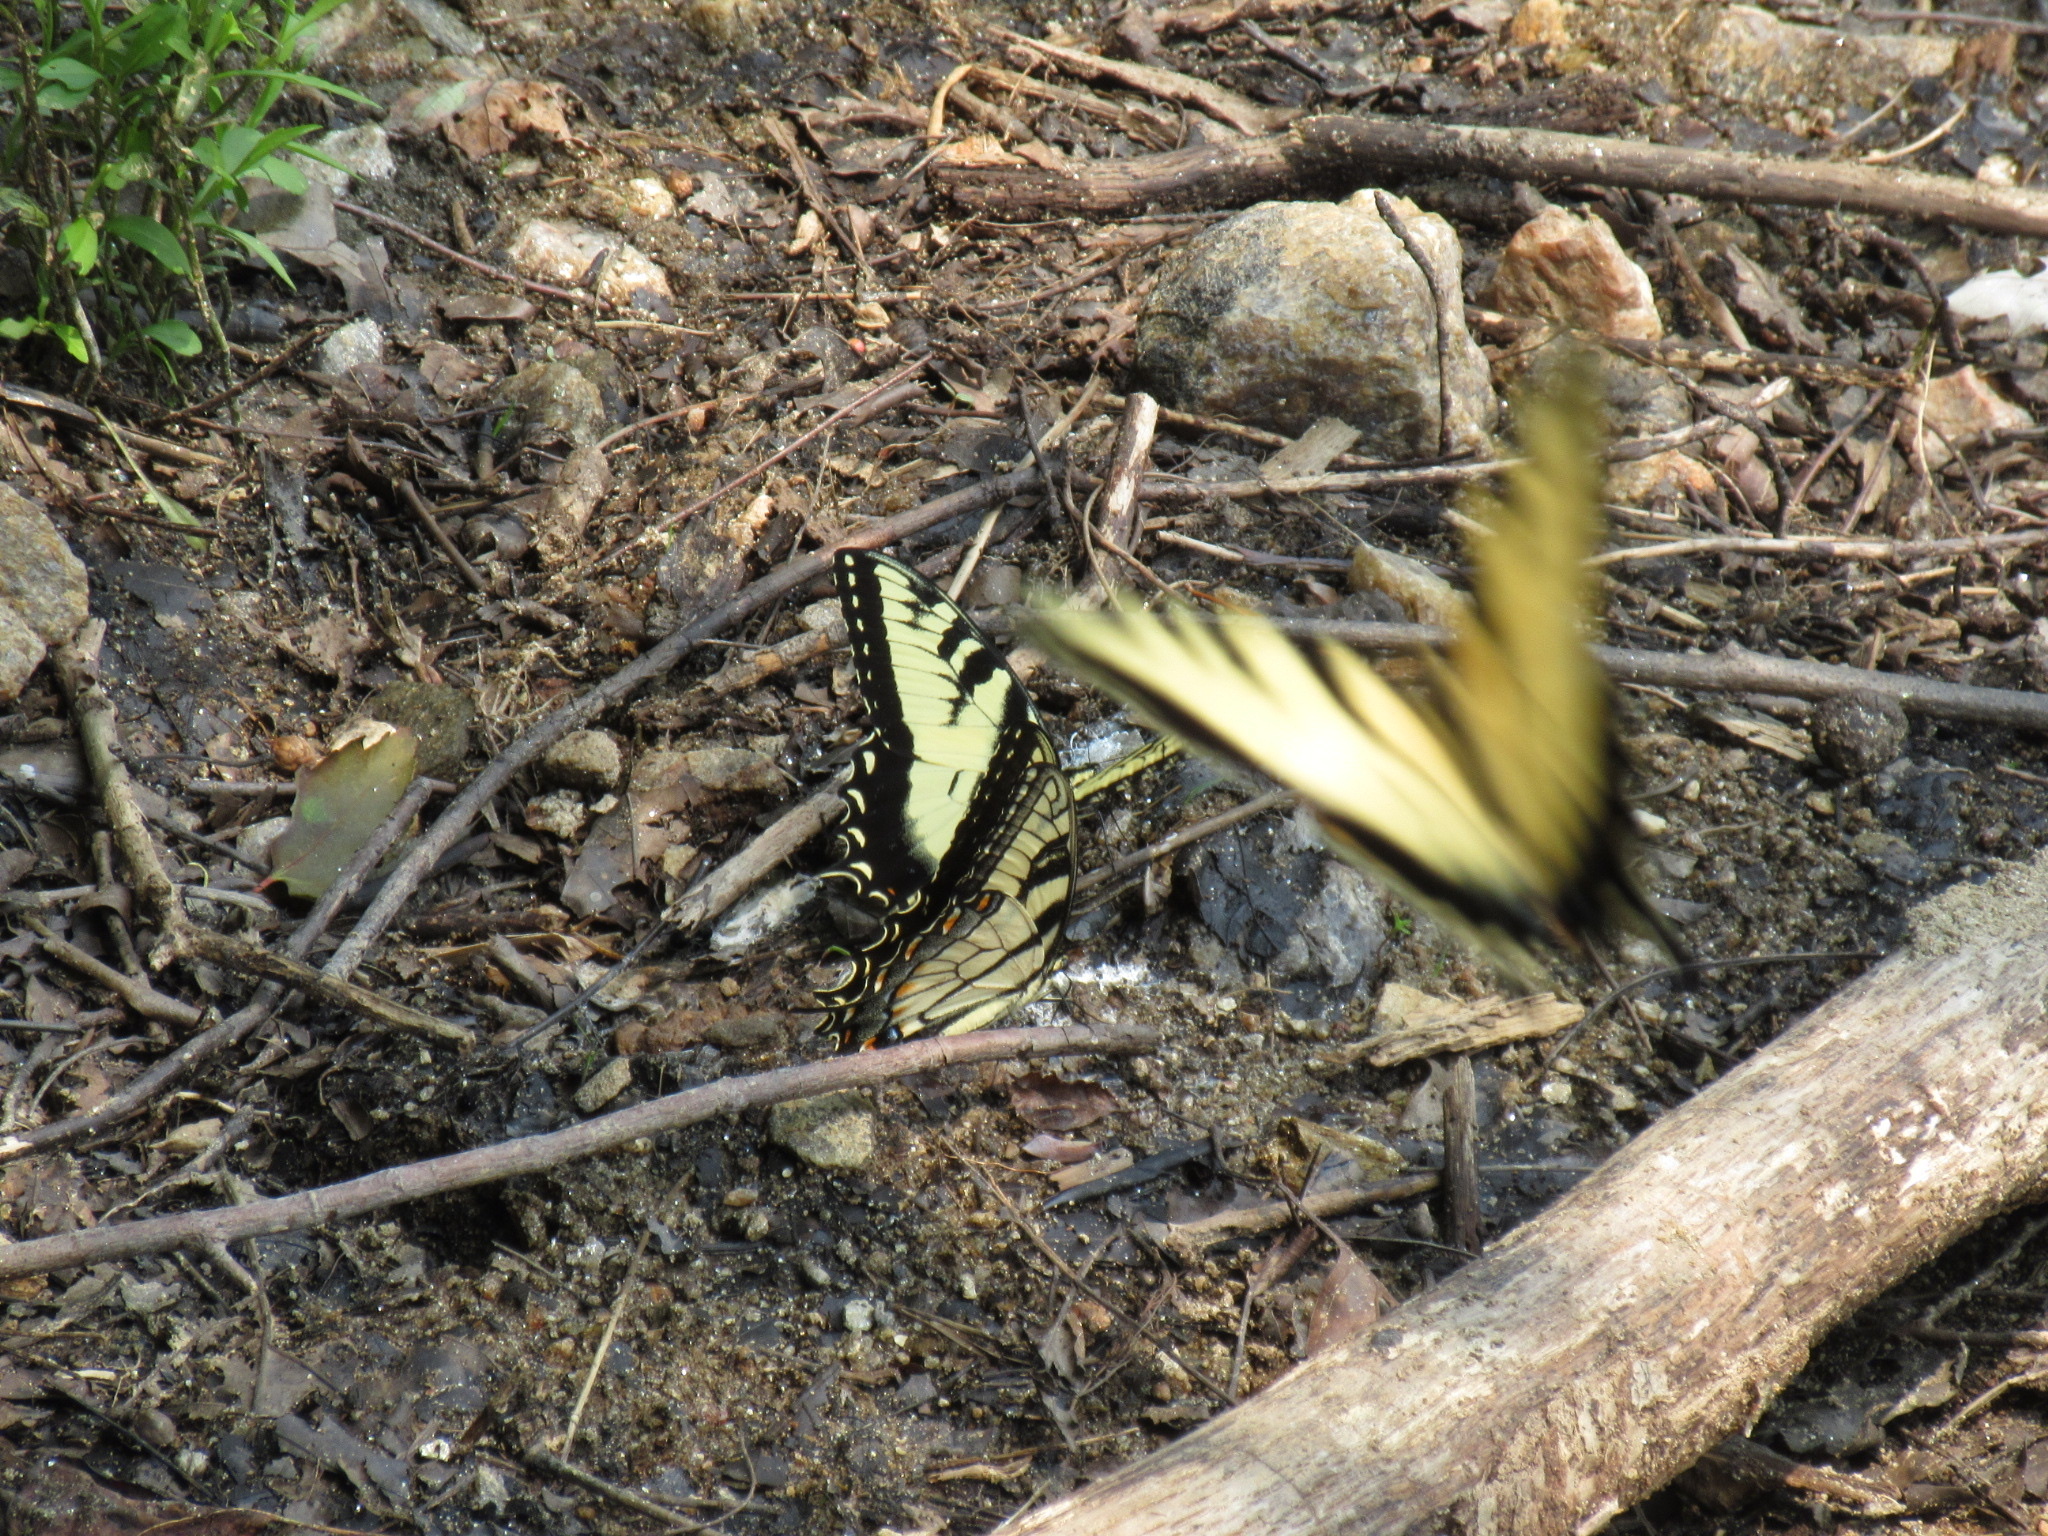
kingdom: Animalia
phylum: Arthropoda
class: Insecta
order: Lepidoptera
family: Papilionidae
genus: Papilio
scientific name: Papilio glaucus
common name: Tiger swallowtail
